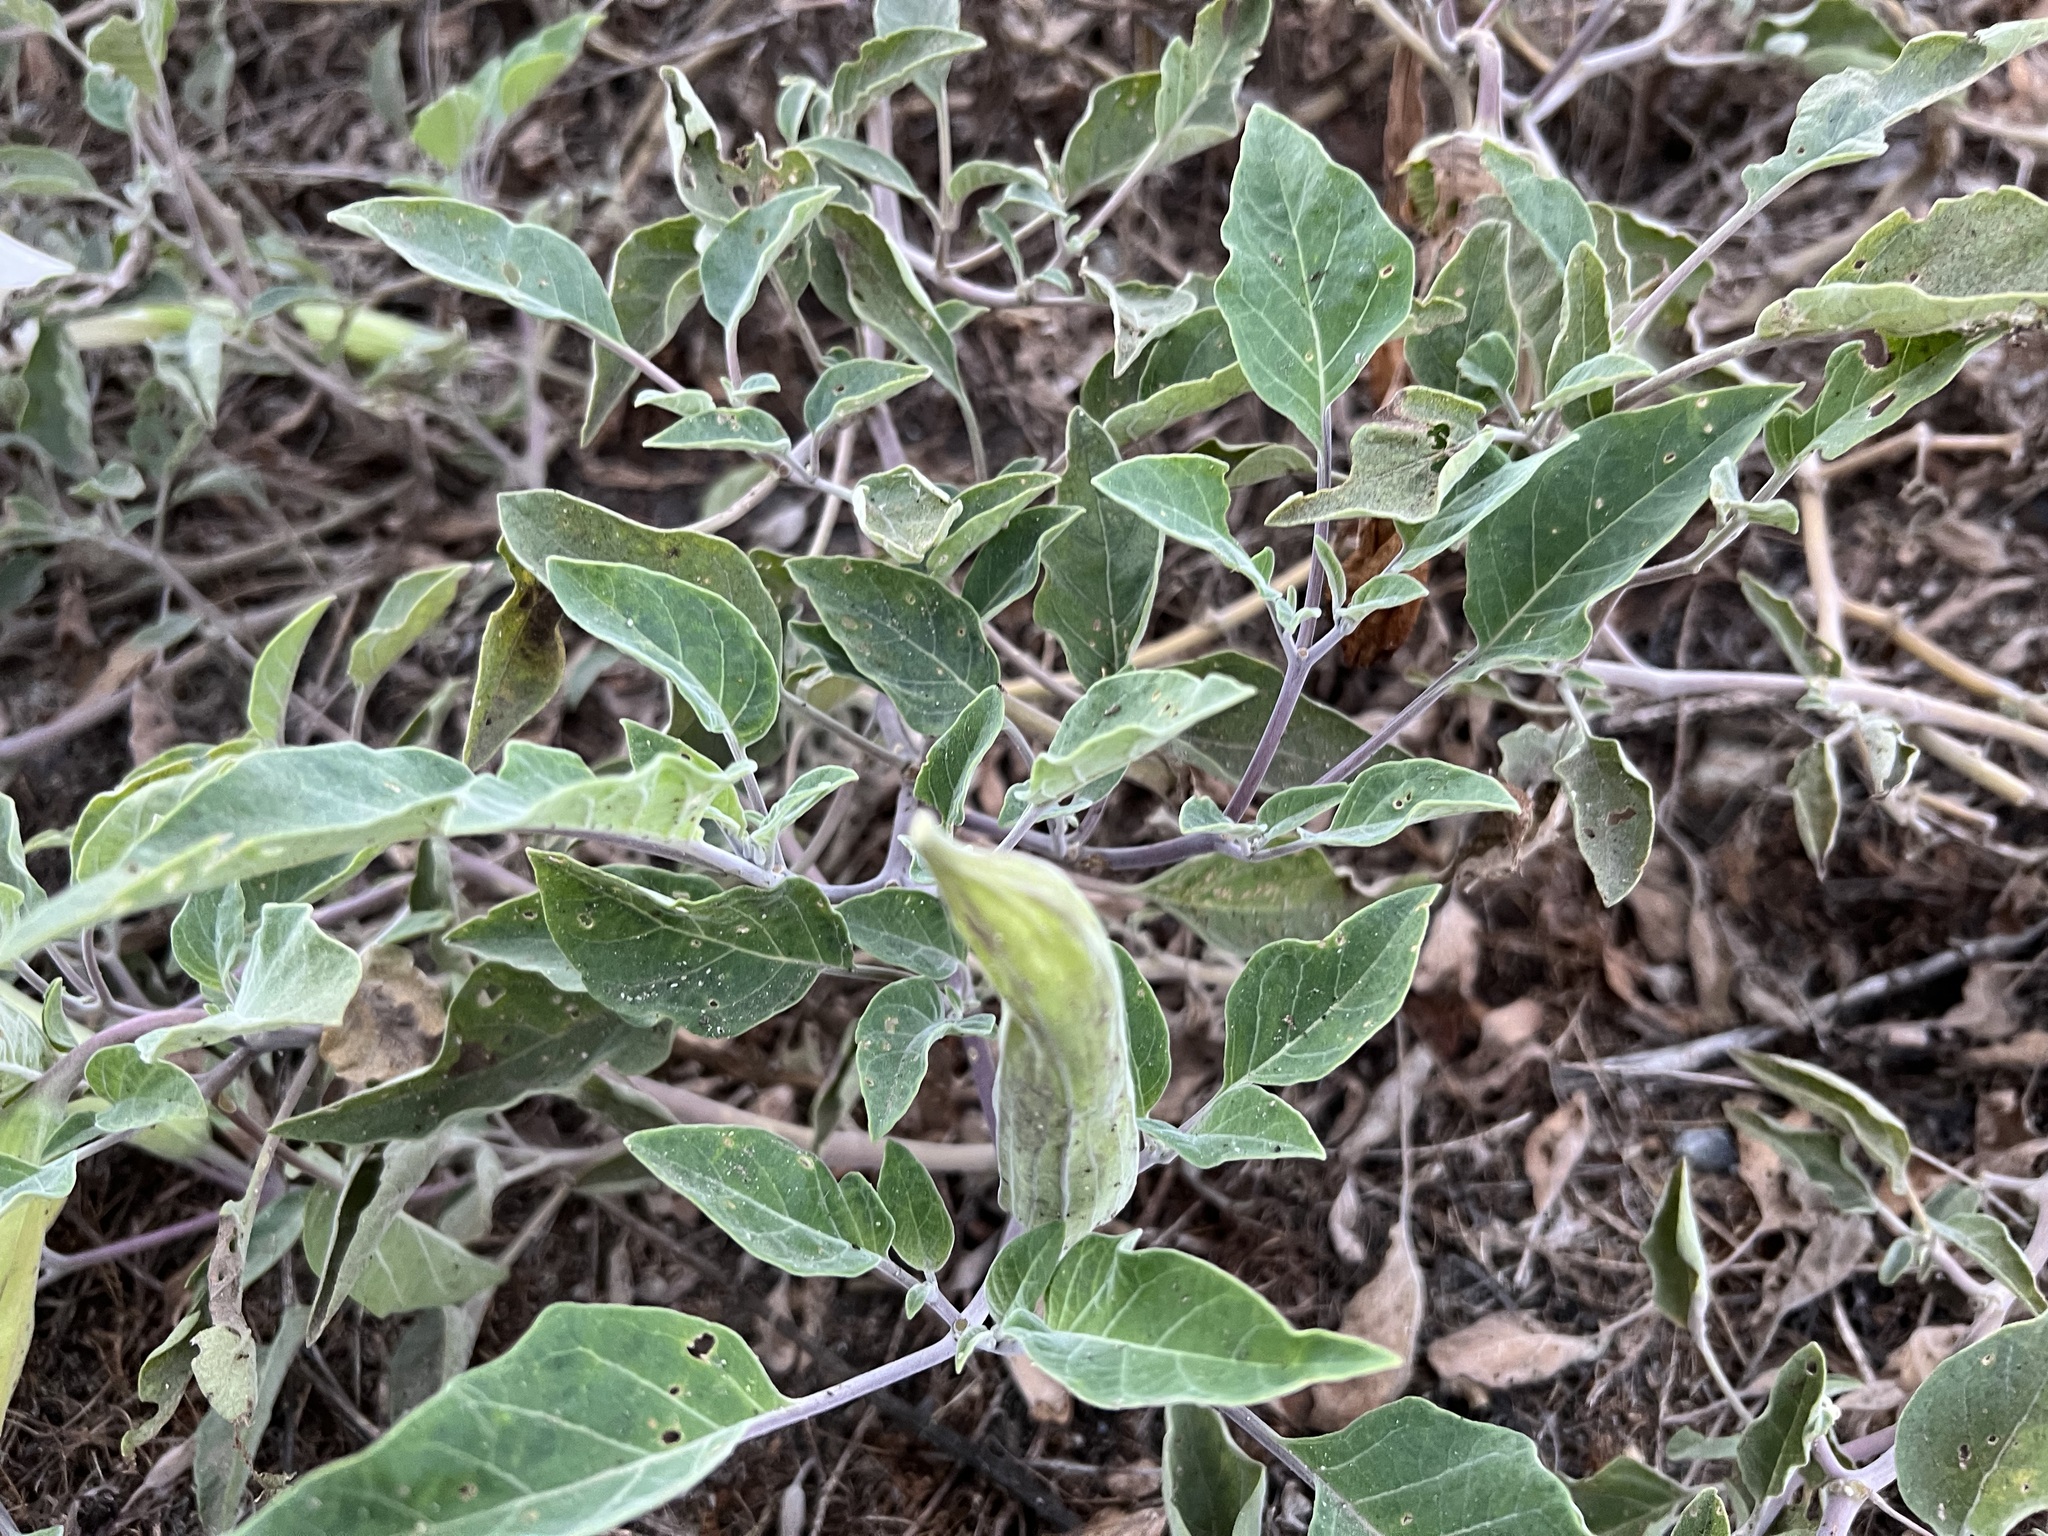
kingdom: Plantae
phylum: Tracheophyta
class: Magnoliopsida
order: Solanales
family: Solanaceae
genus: Datura
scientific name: Datura wrightii
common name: Sacred thorn-apple
